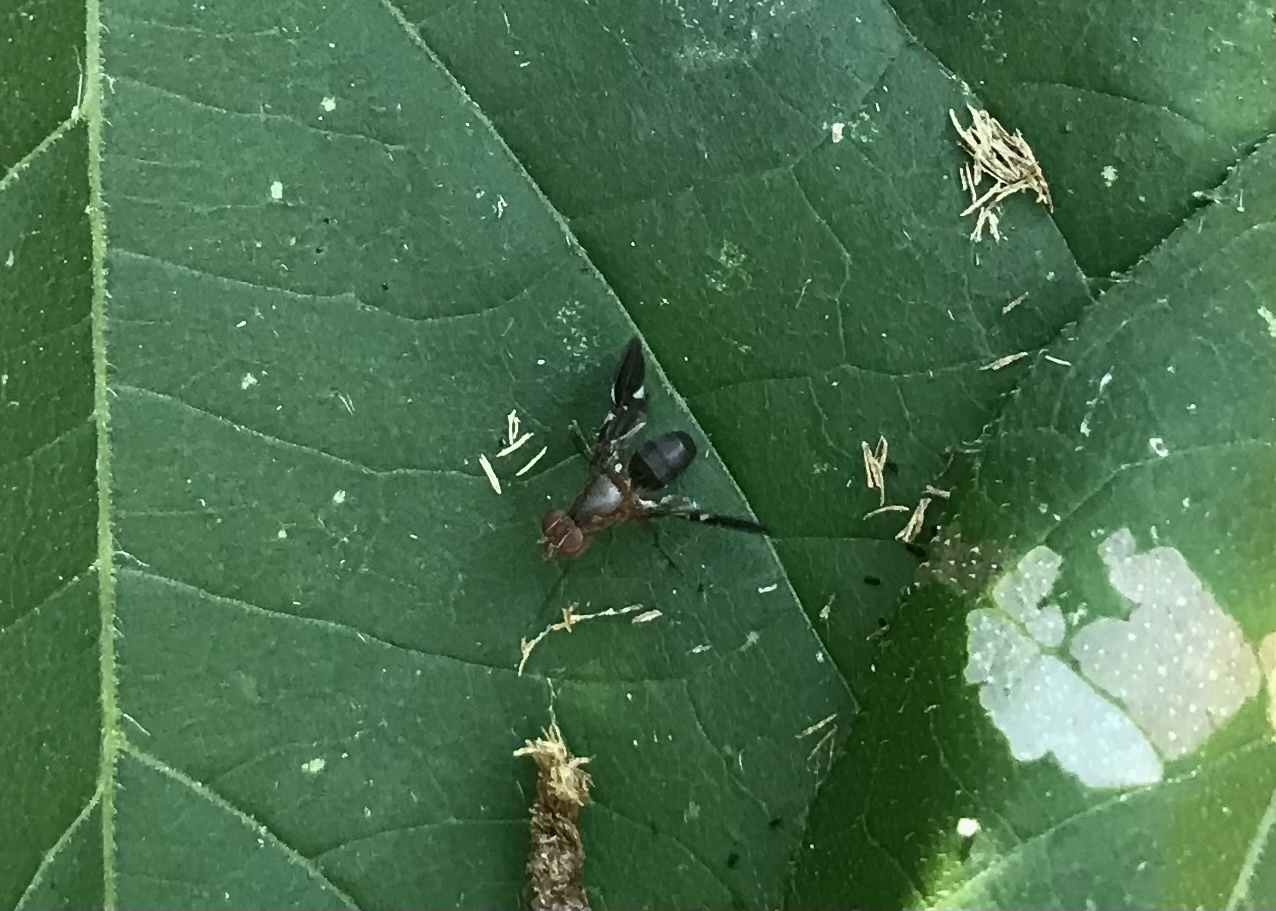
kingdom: Animalia
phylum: Arthropoda
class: Insecta
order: Diptera
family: Ulidiidae
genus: Delphinia
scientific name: Delphinia picta
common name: Common picture-winged fly
